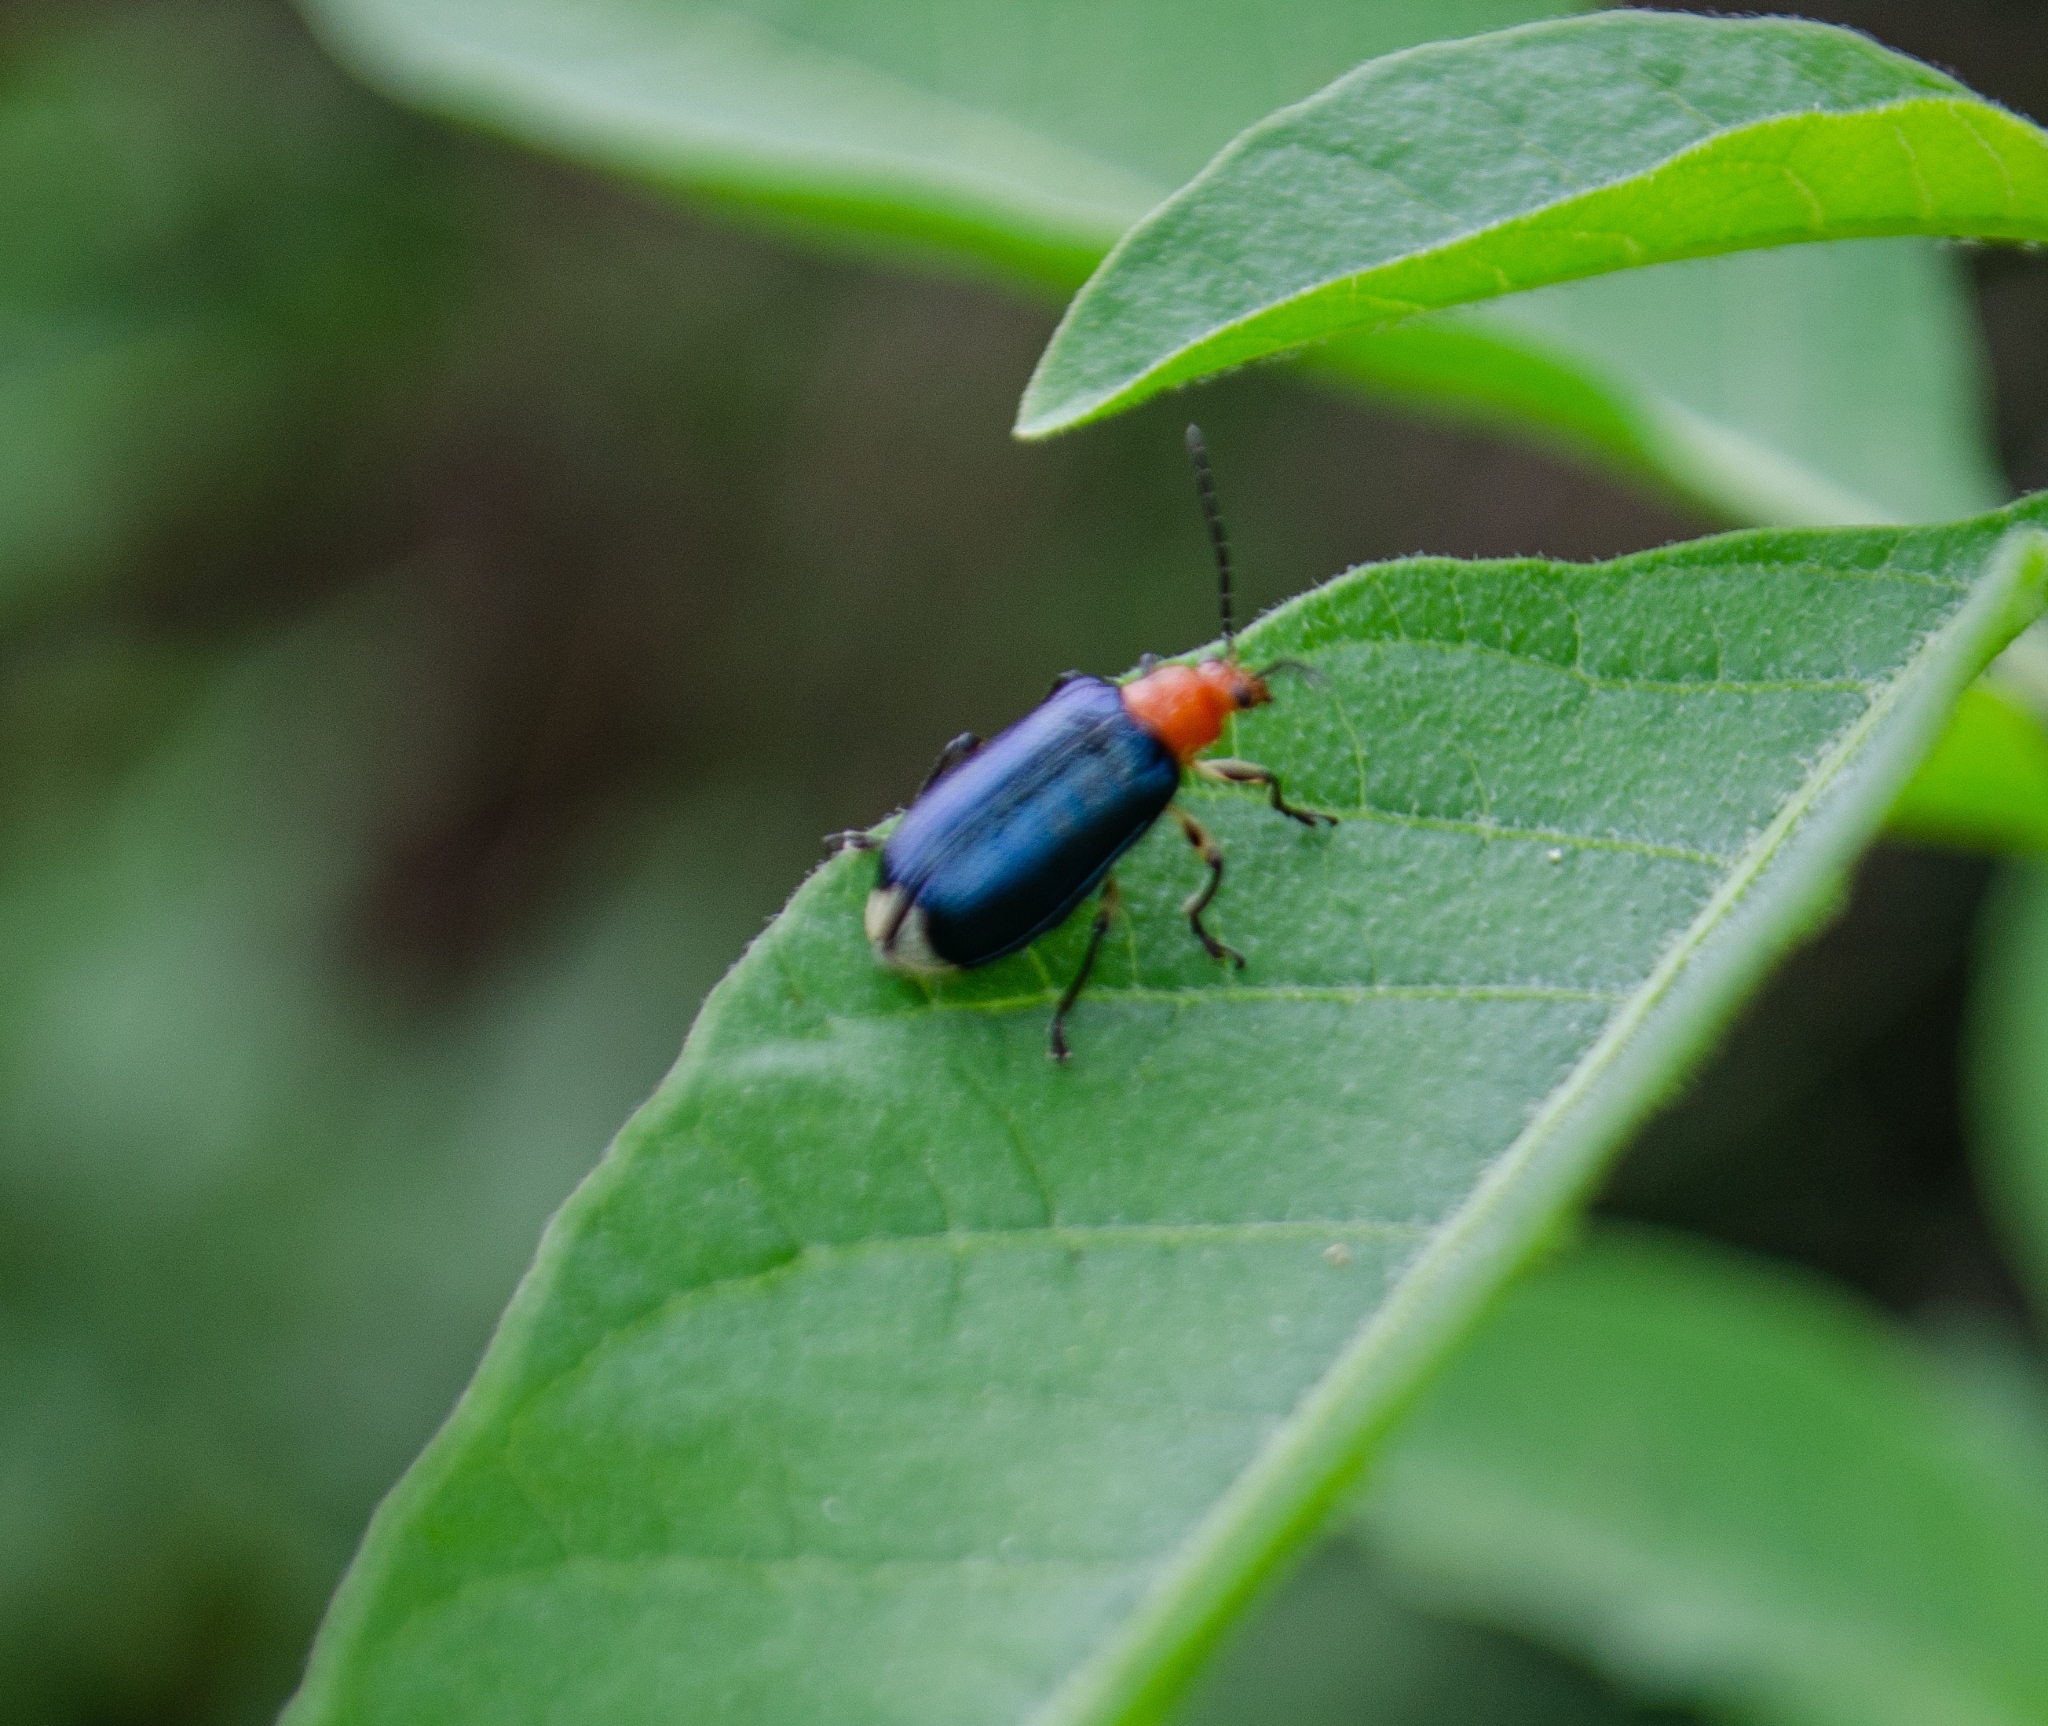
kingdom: Animalia
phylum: Arthropoda
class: Insecta
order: Coleoptera
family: Chrysomelidae
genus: Stolas
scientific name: Stolas chalybaea
